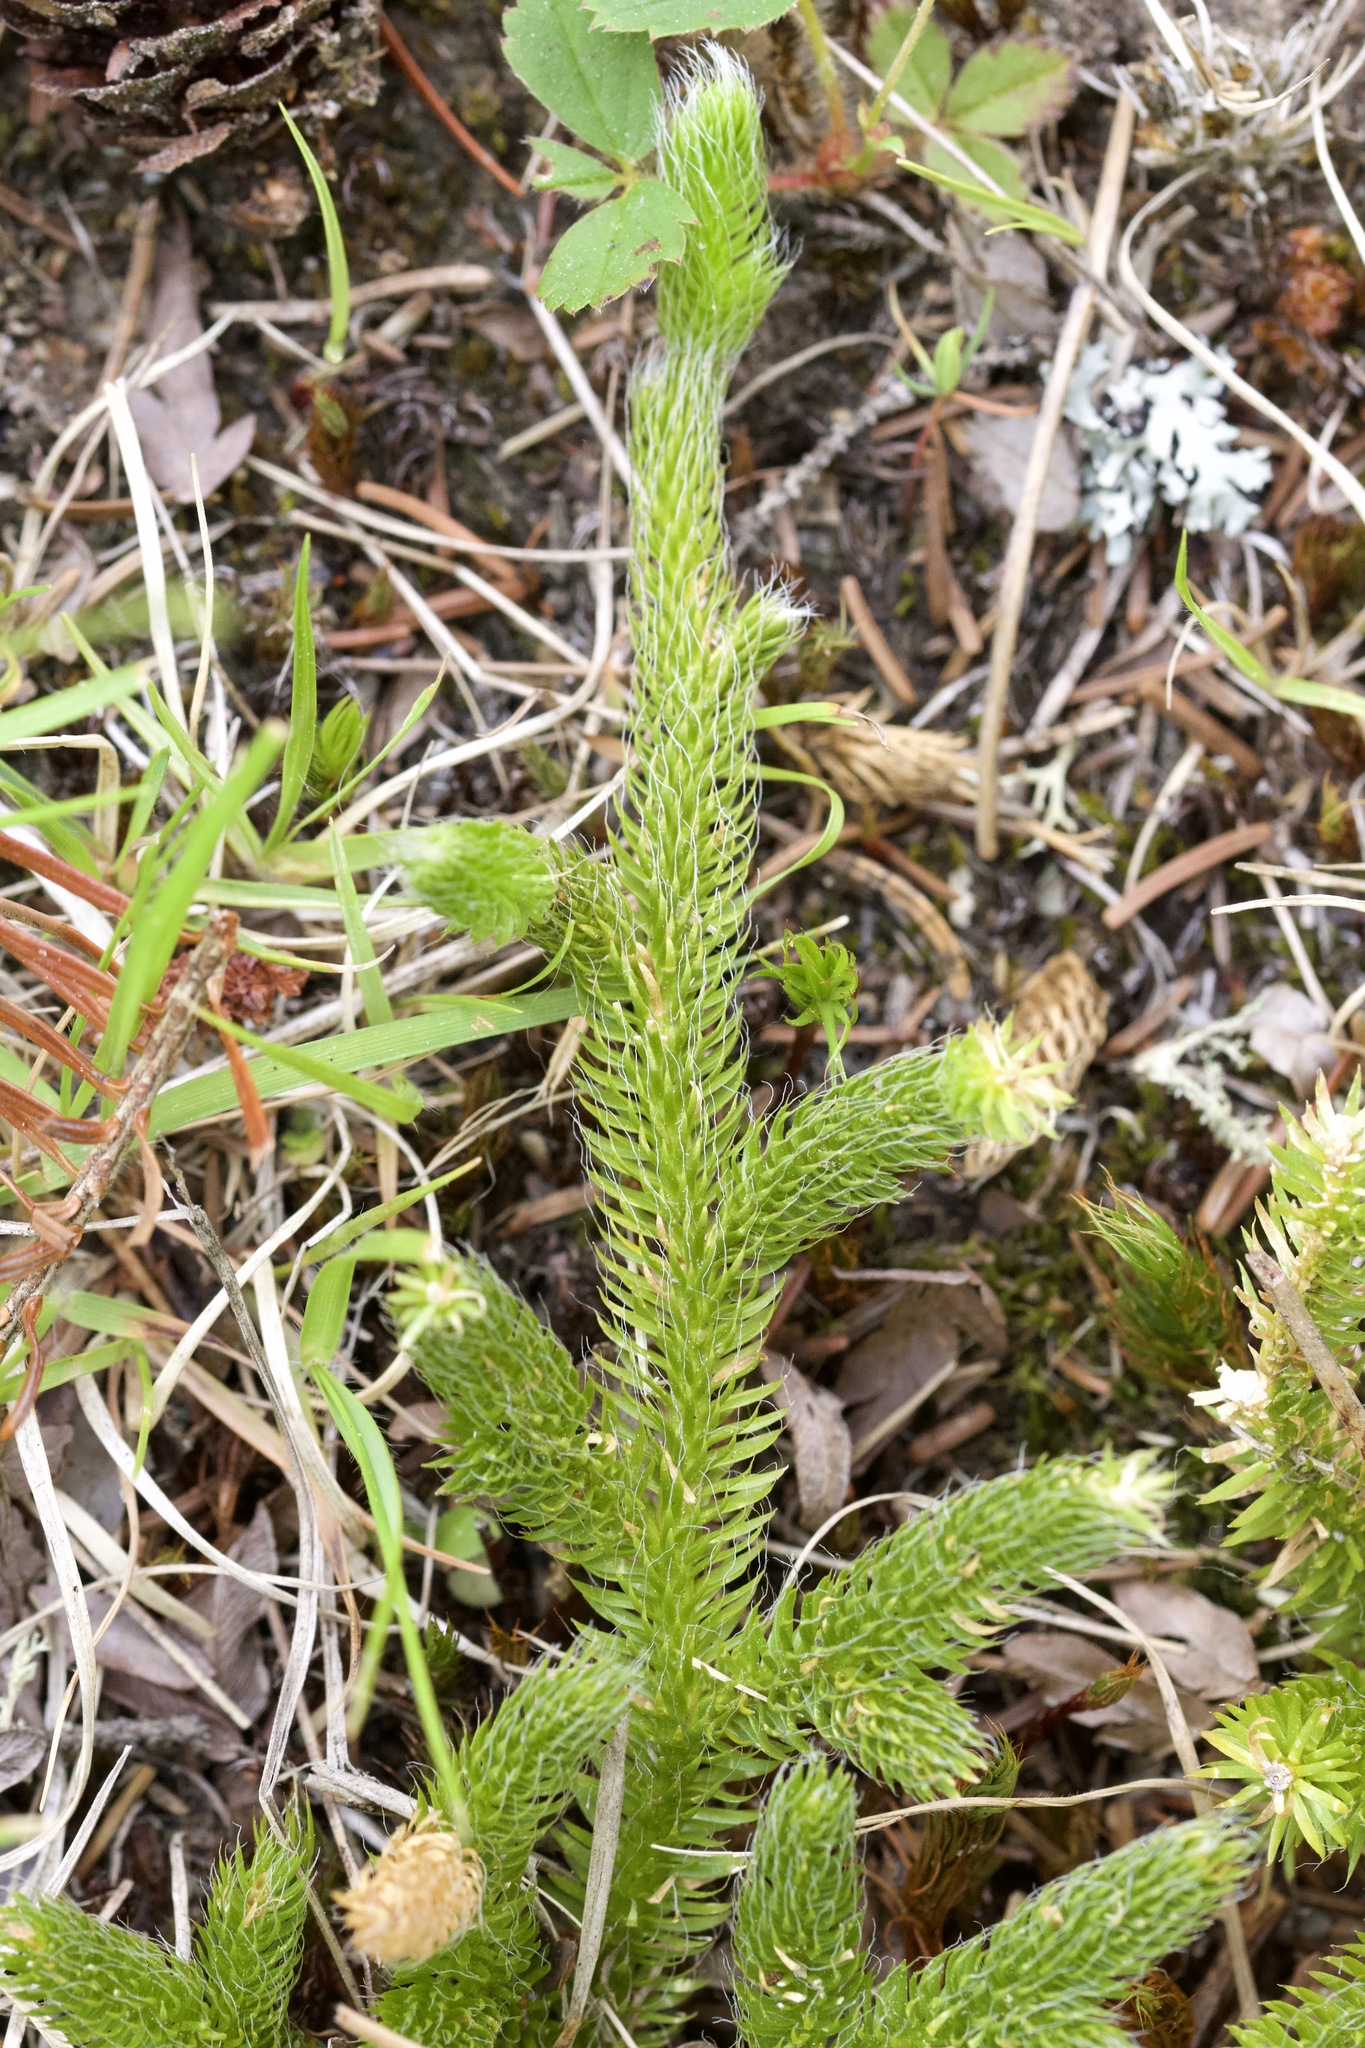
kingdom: Plantae
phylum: Tracheophyta
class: Lycopodiopsida
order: Lycopodiales
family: Lycopodiaceae
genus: Lycopodium
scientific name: Lycopodium clavatum
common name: Stag's-horn clubmoss
